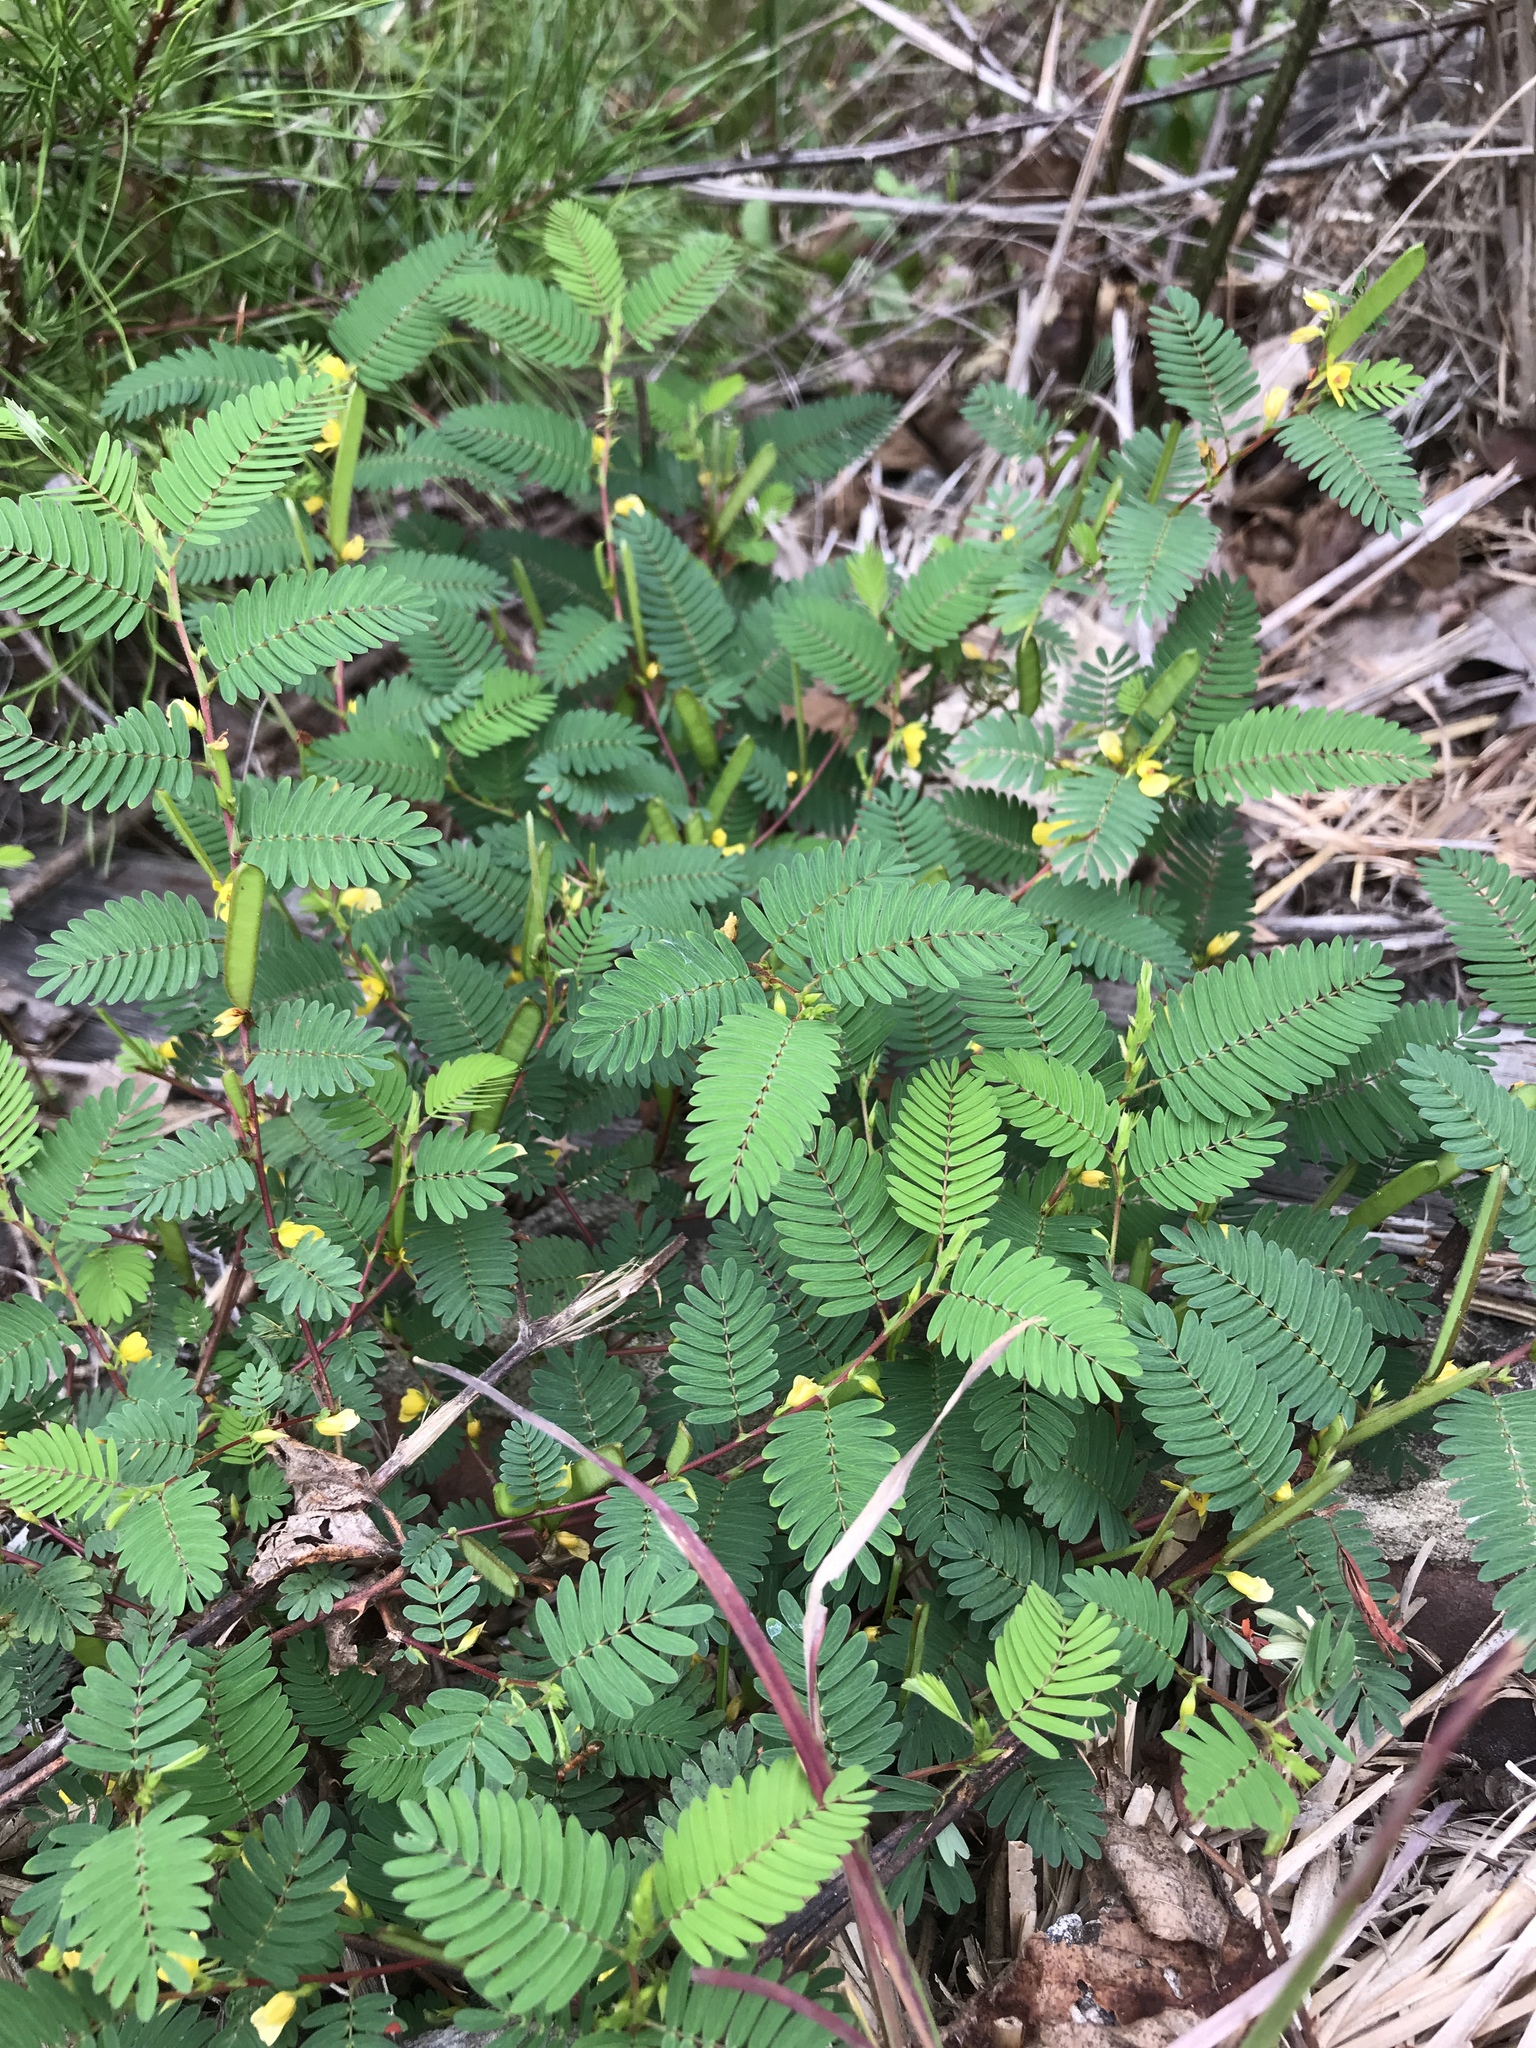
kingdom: Plantae
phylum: Tracheophyta
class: Magnoliopsida
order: Fabales
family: Fabaceae
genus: Chamaecrista
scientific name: Chamaecrista nictitans
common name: Sensitive cassia
